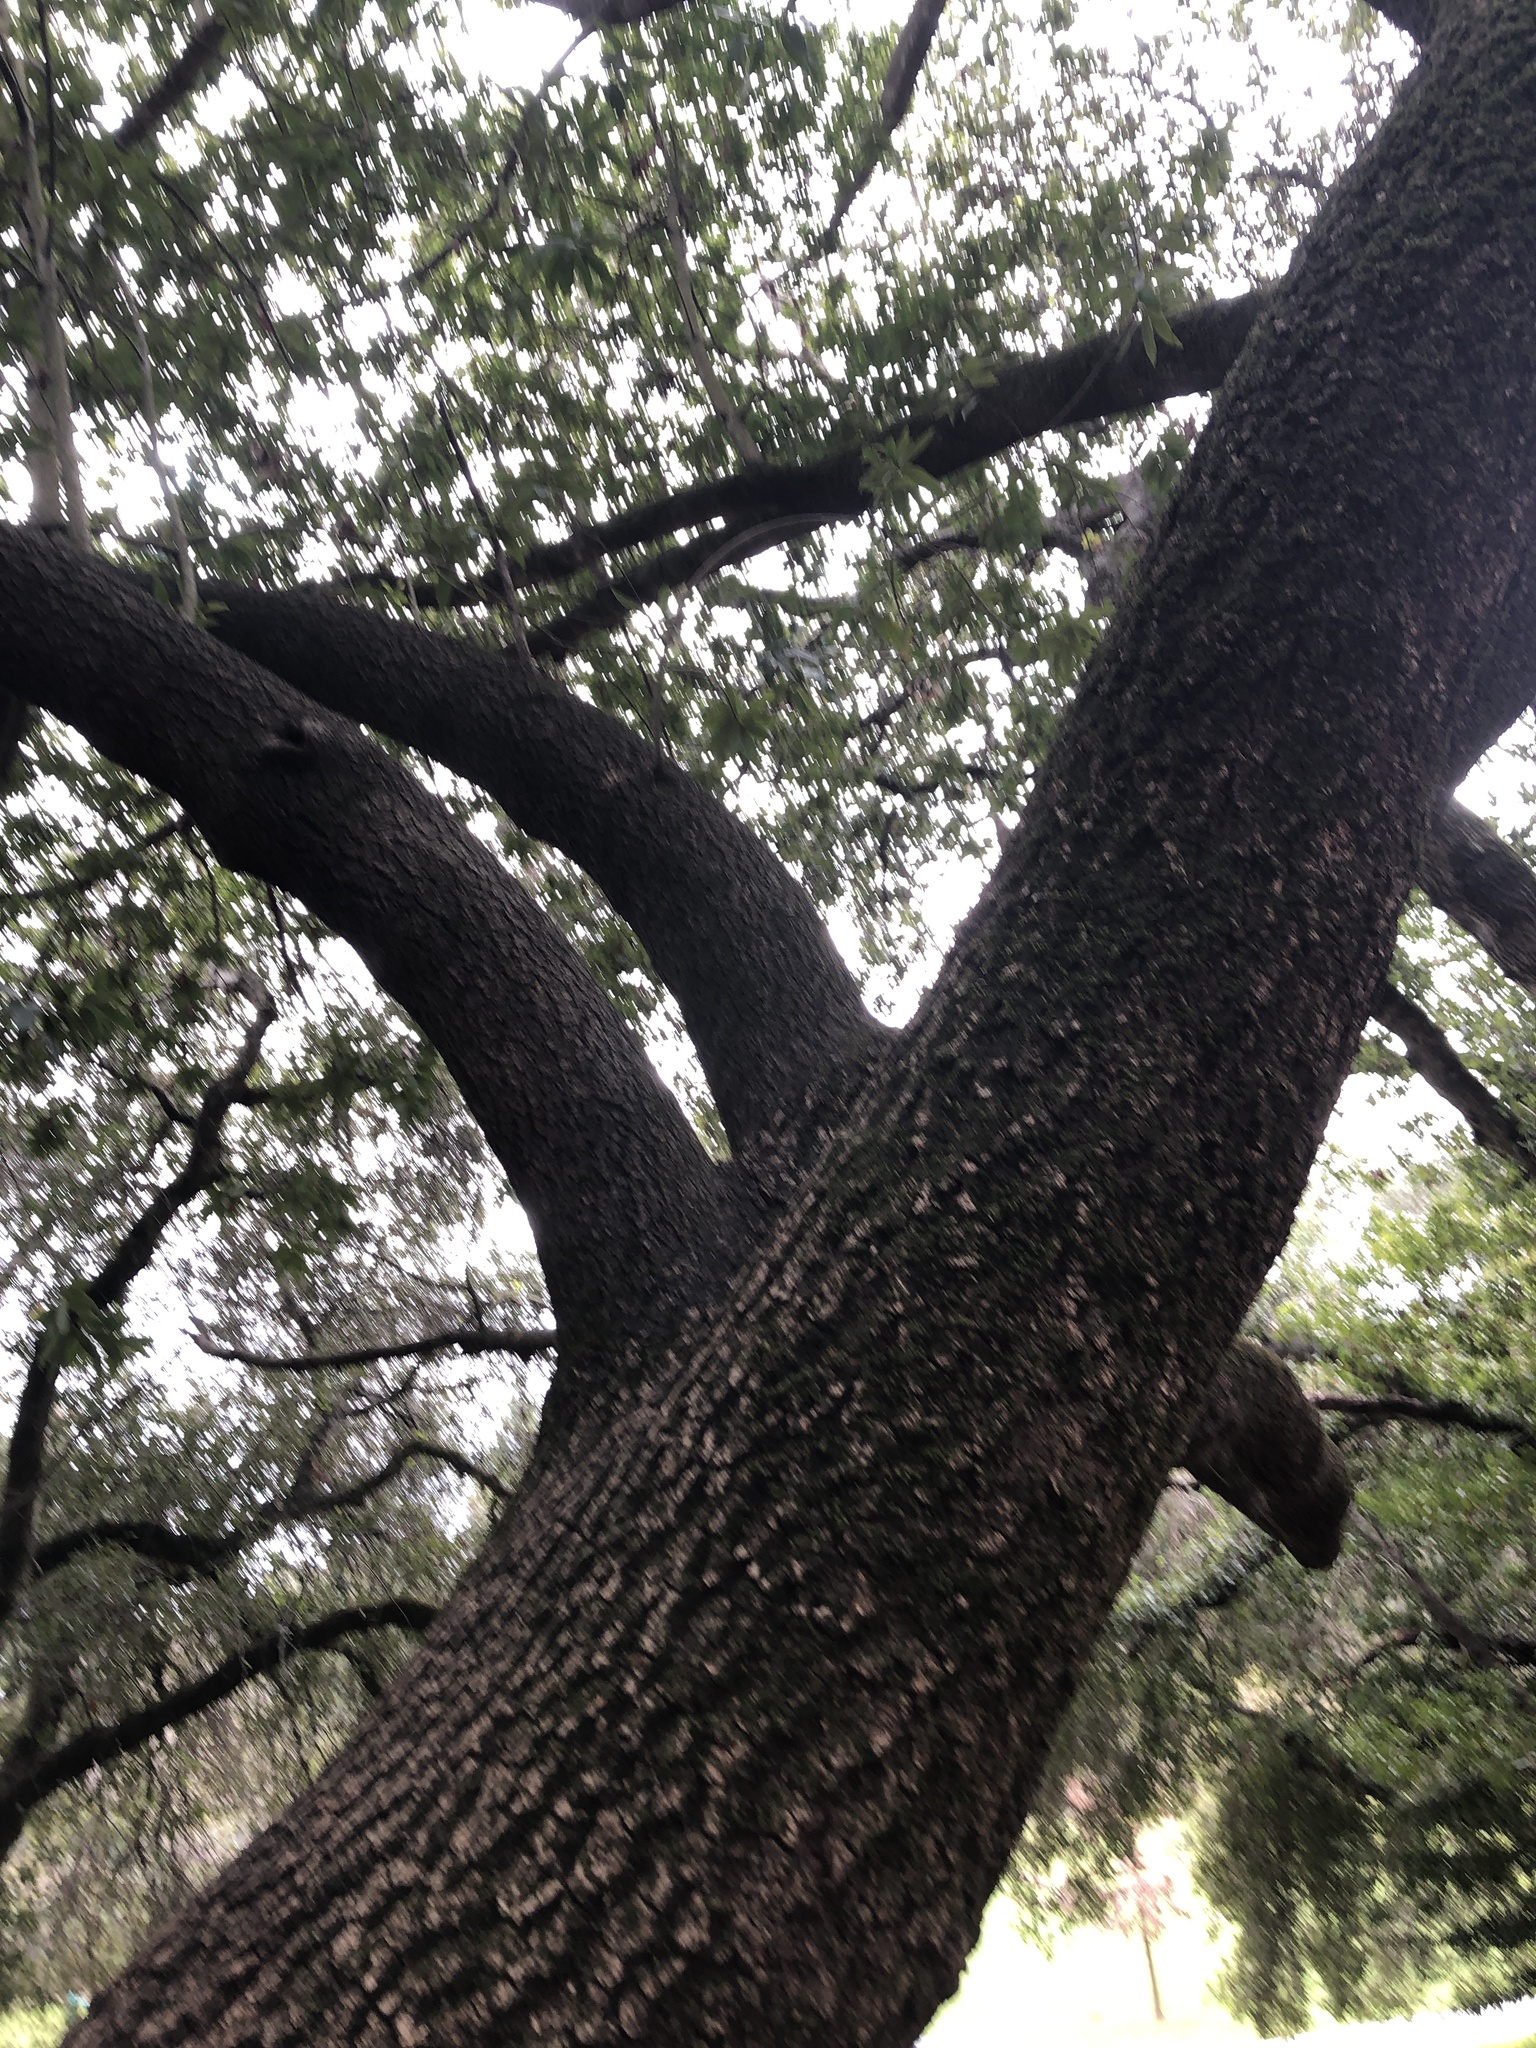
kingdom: Plantae
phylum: Tracheophyta
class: Magnoliopsida
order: Laurales
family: Lauraceae
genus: Umbellularia
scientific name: Umbellularia californica
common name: California bay
